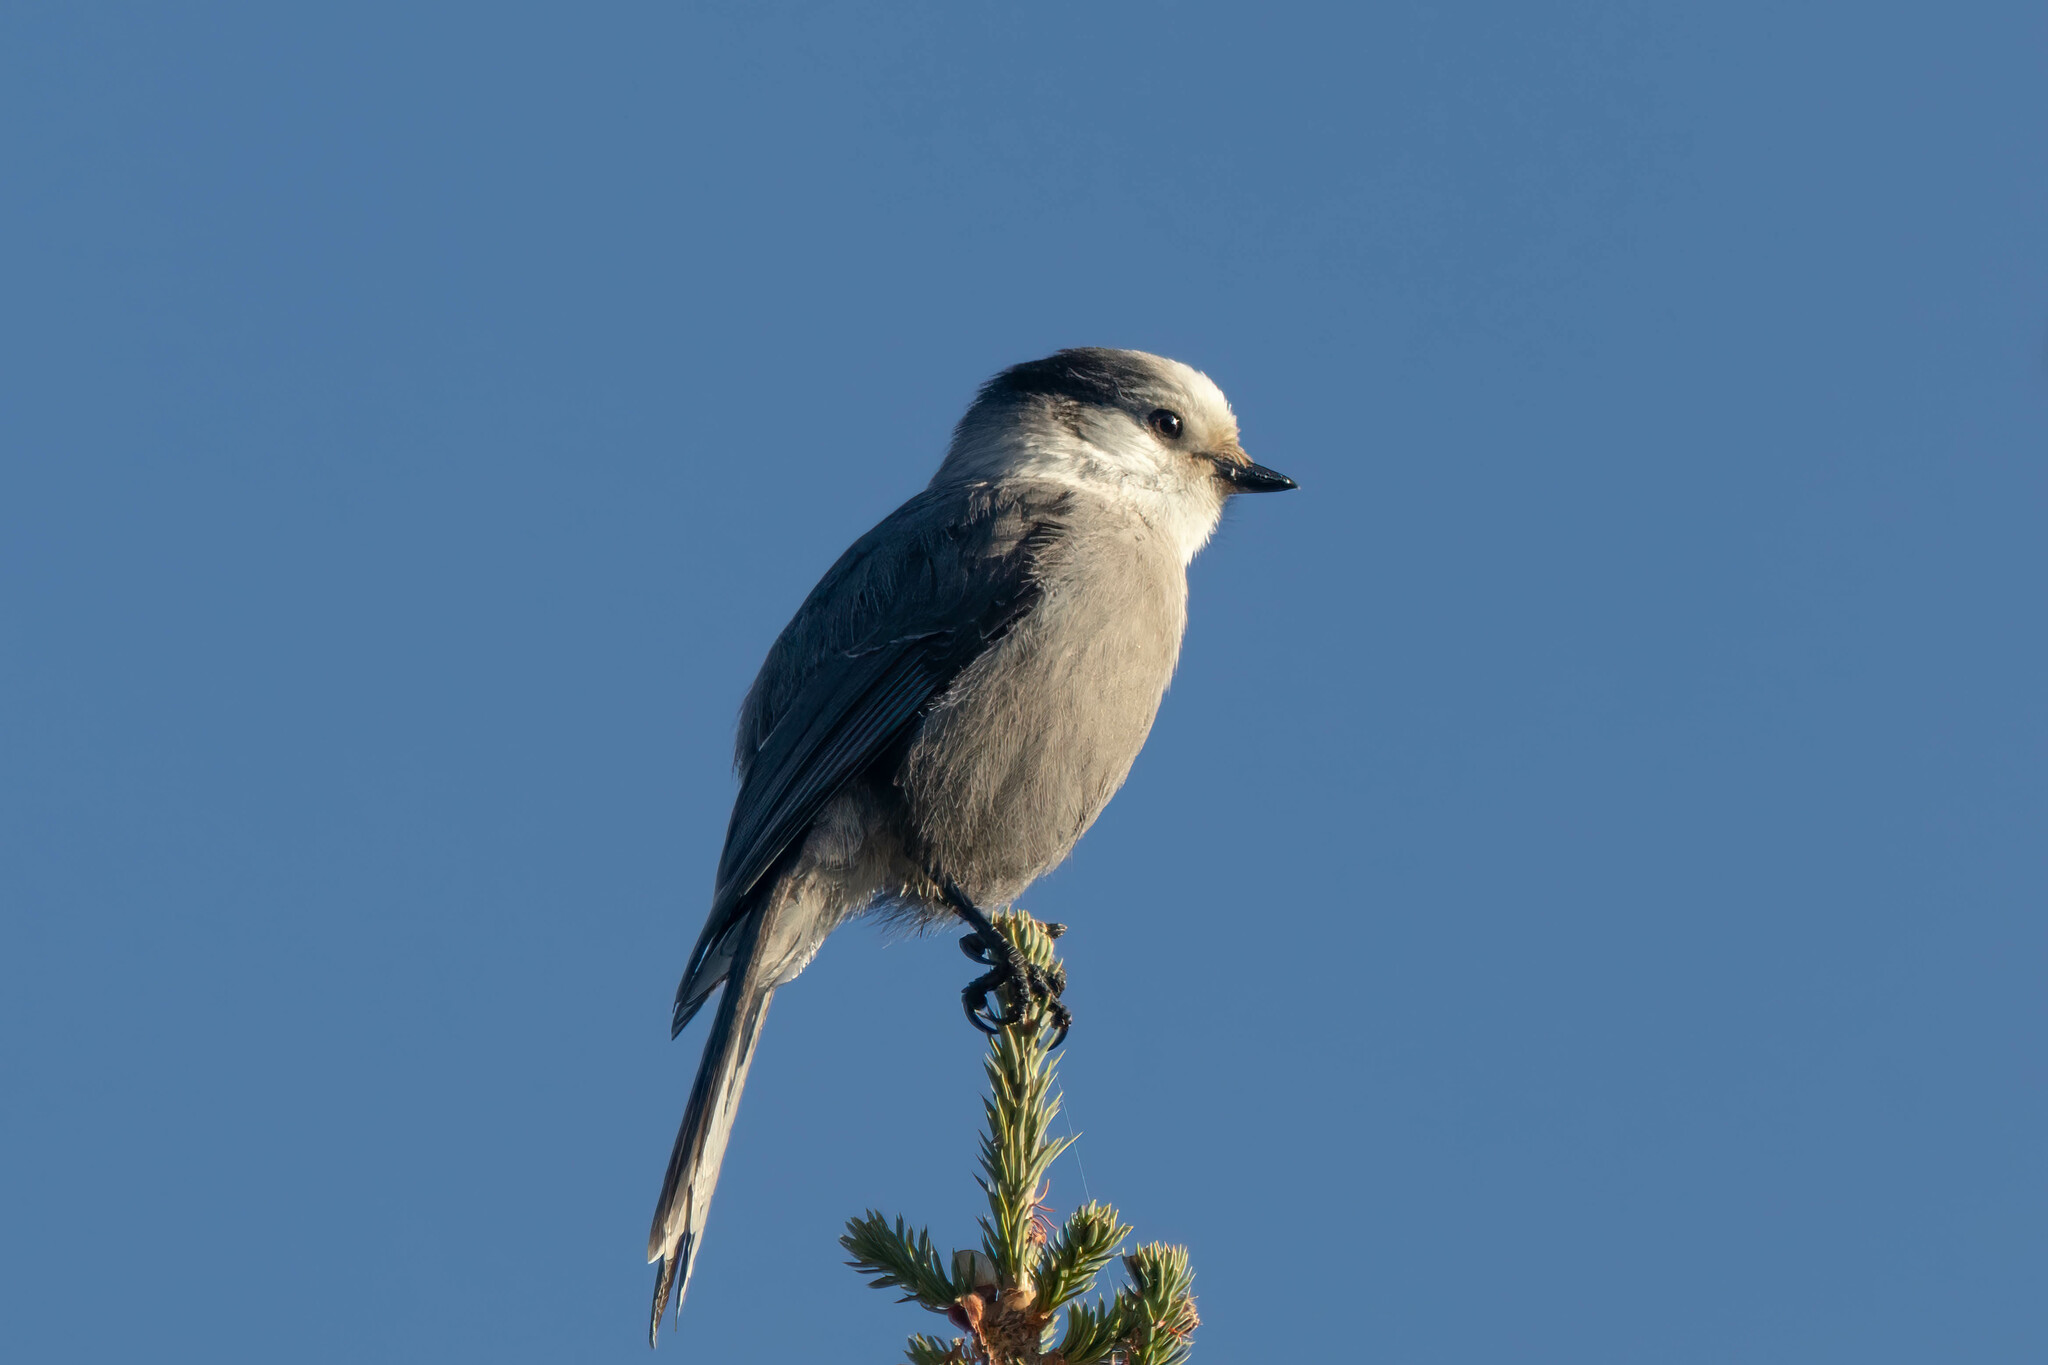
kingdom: Animalia
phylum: Chordata
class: Aves
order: Passeriformes
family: Corvidae
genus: Perisoreus
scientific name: Perisoreus canadensis
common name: Gray jay
